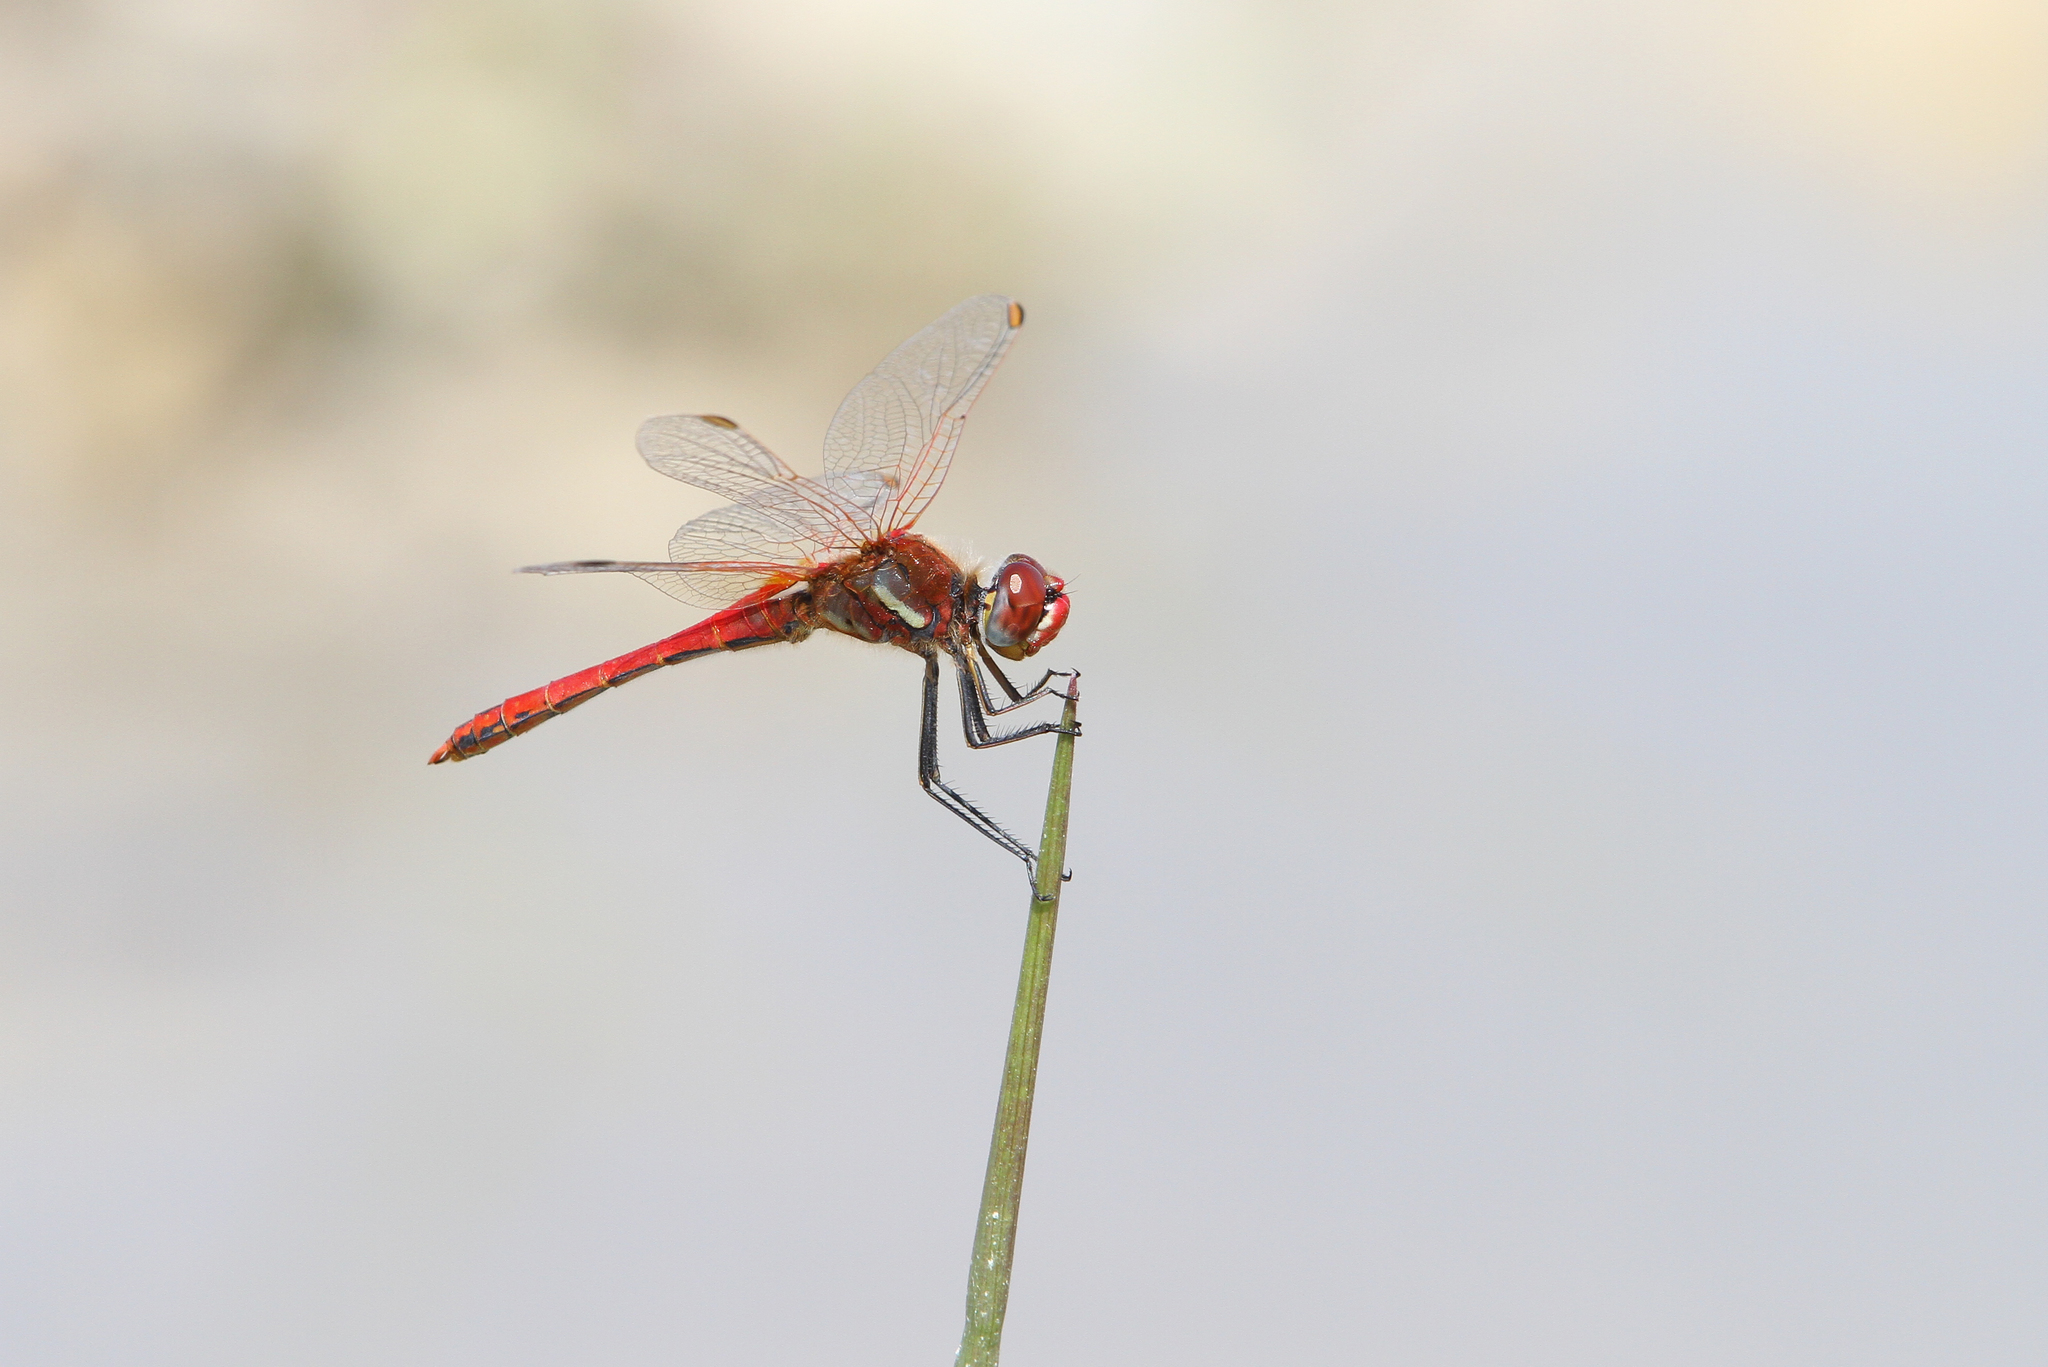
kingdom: Animalia
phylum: Arthropoda
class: Insecta
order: Odonata
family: Libellulidae
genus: Sympetrum
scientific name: Sympetrum fonscolombii
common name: Red-veined darter
